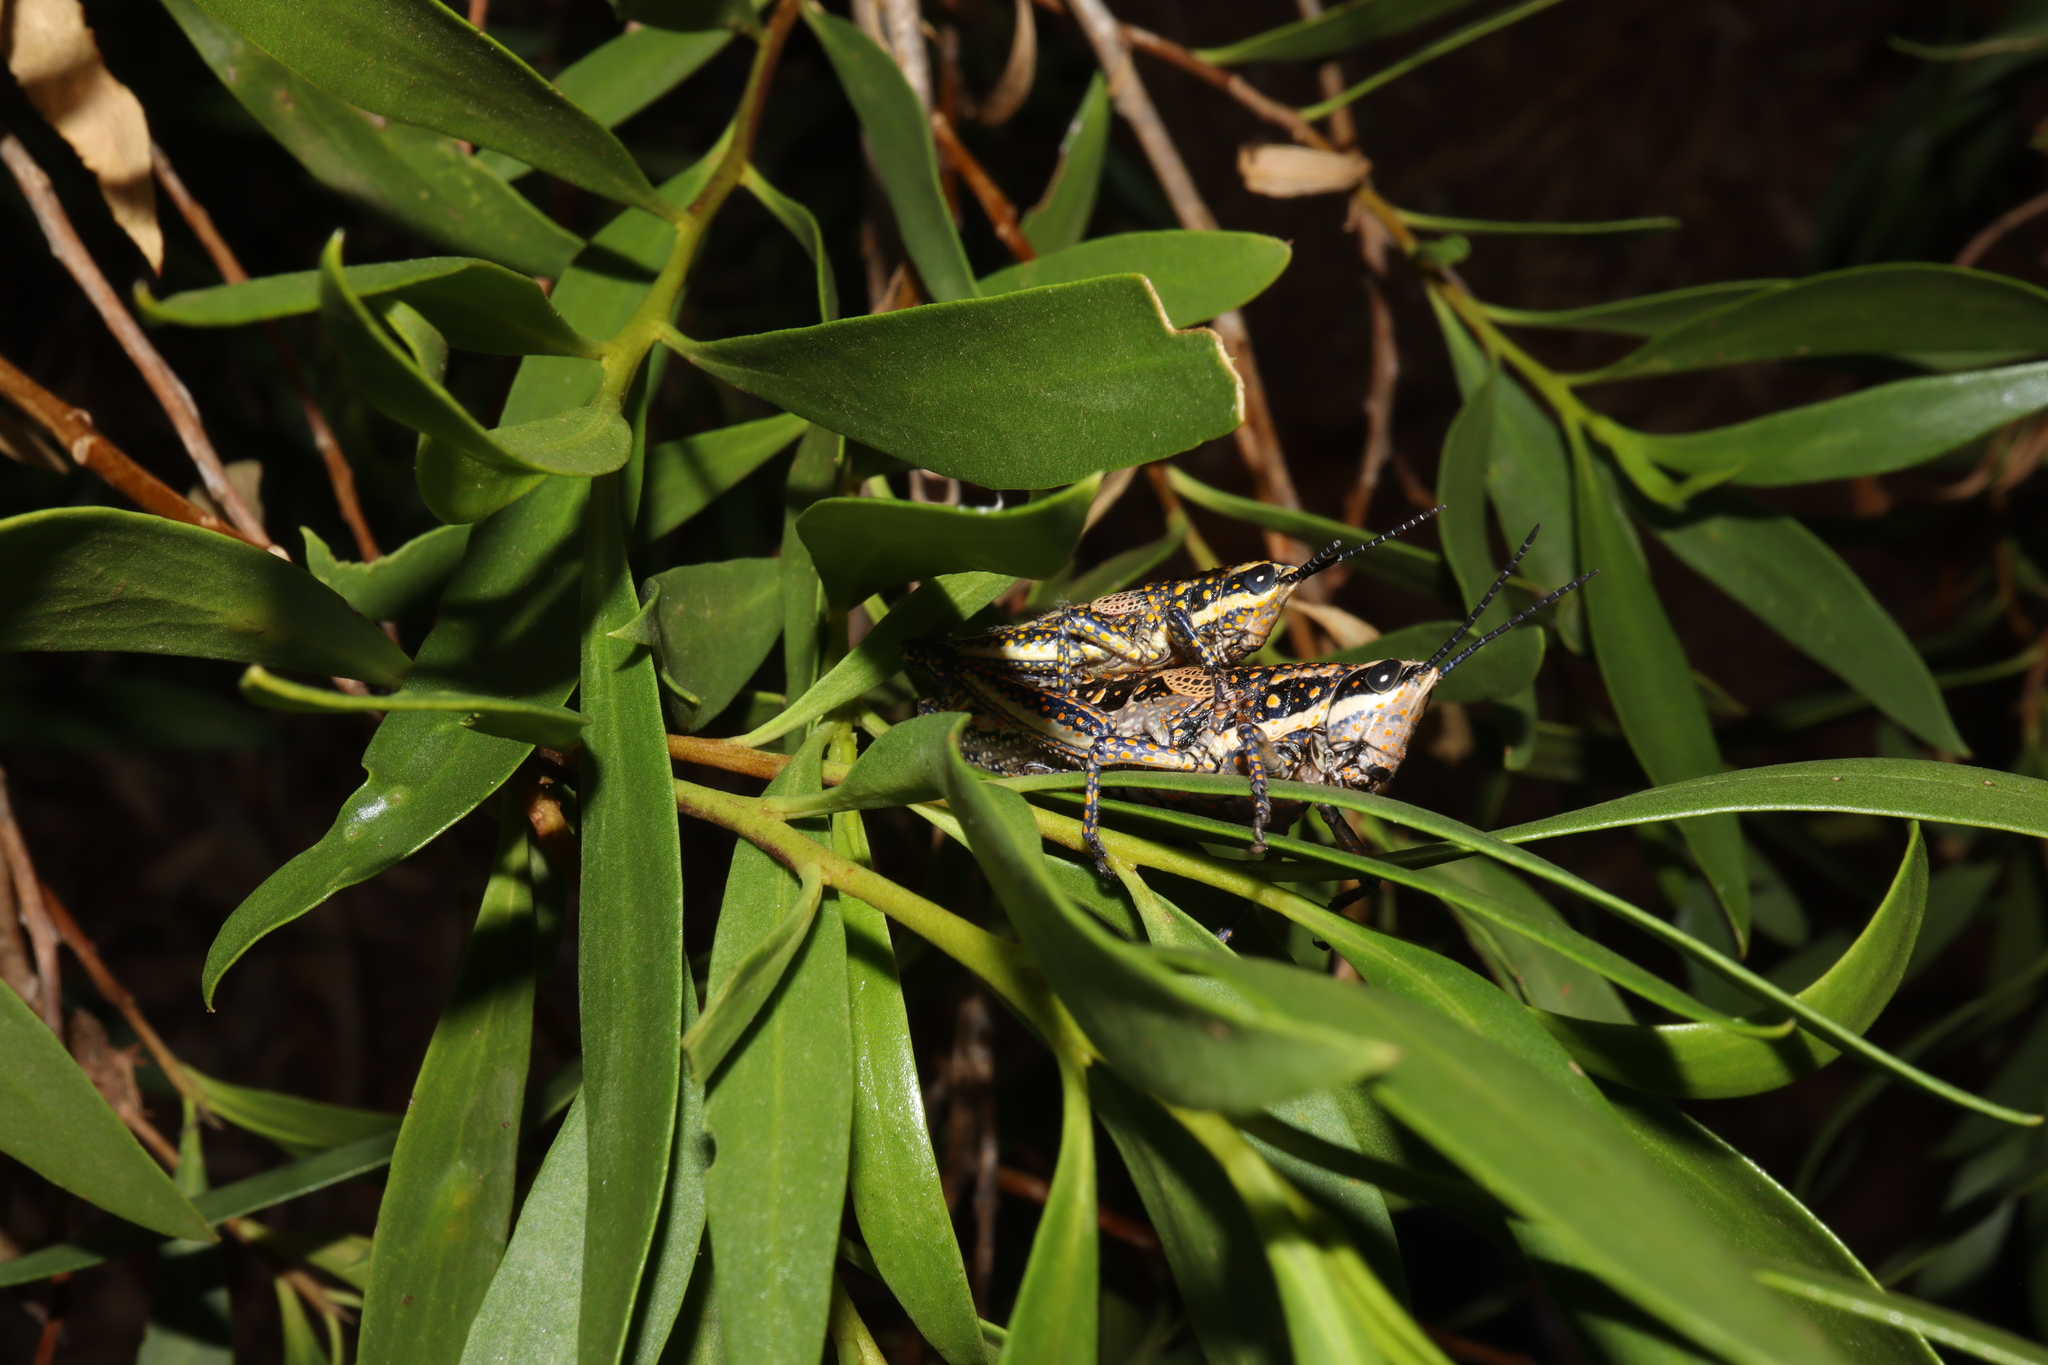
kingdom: Animalia
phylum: Arthropoda
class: Insecta
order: Orthoptera
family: Pyrgomorphidae
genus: Monistria
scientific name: Monistria pustulifera
